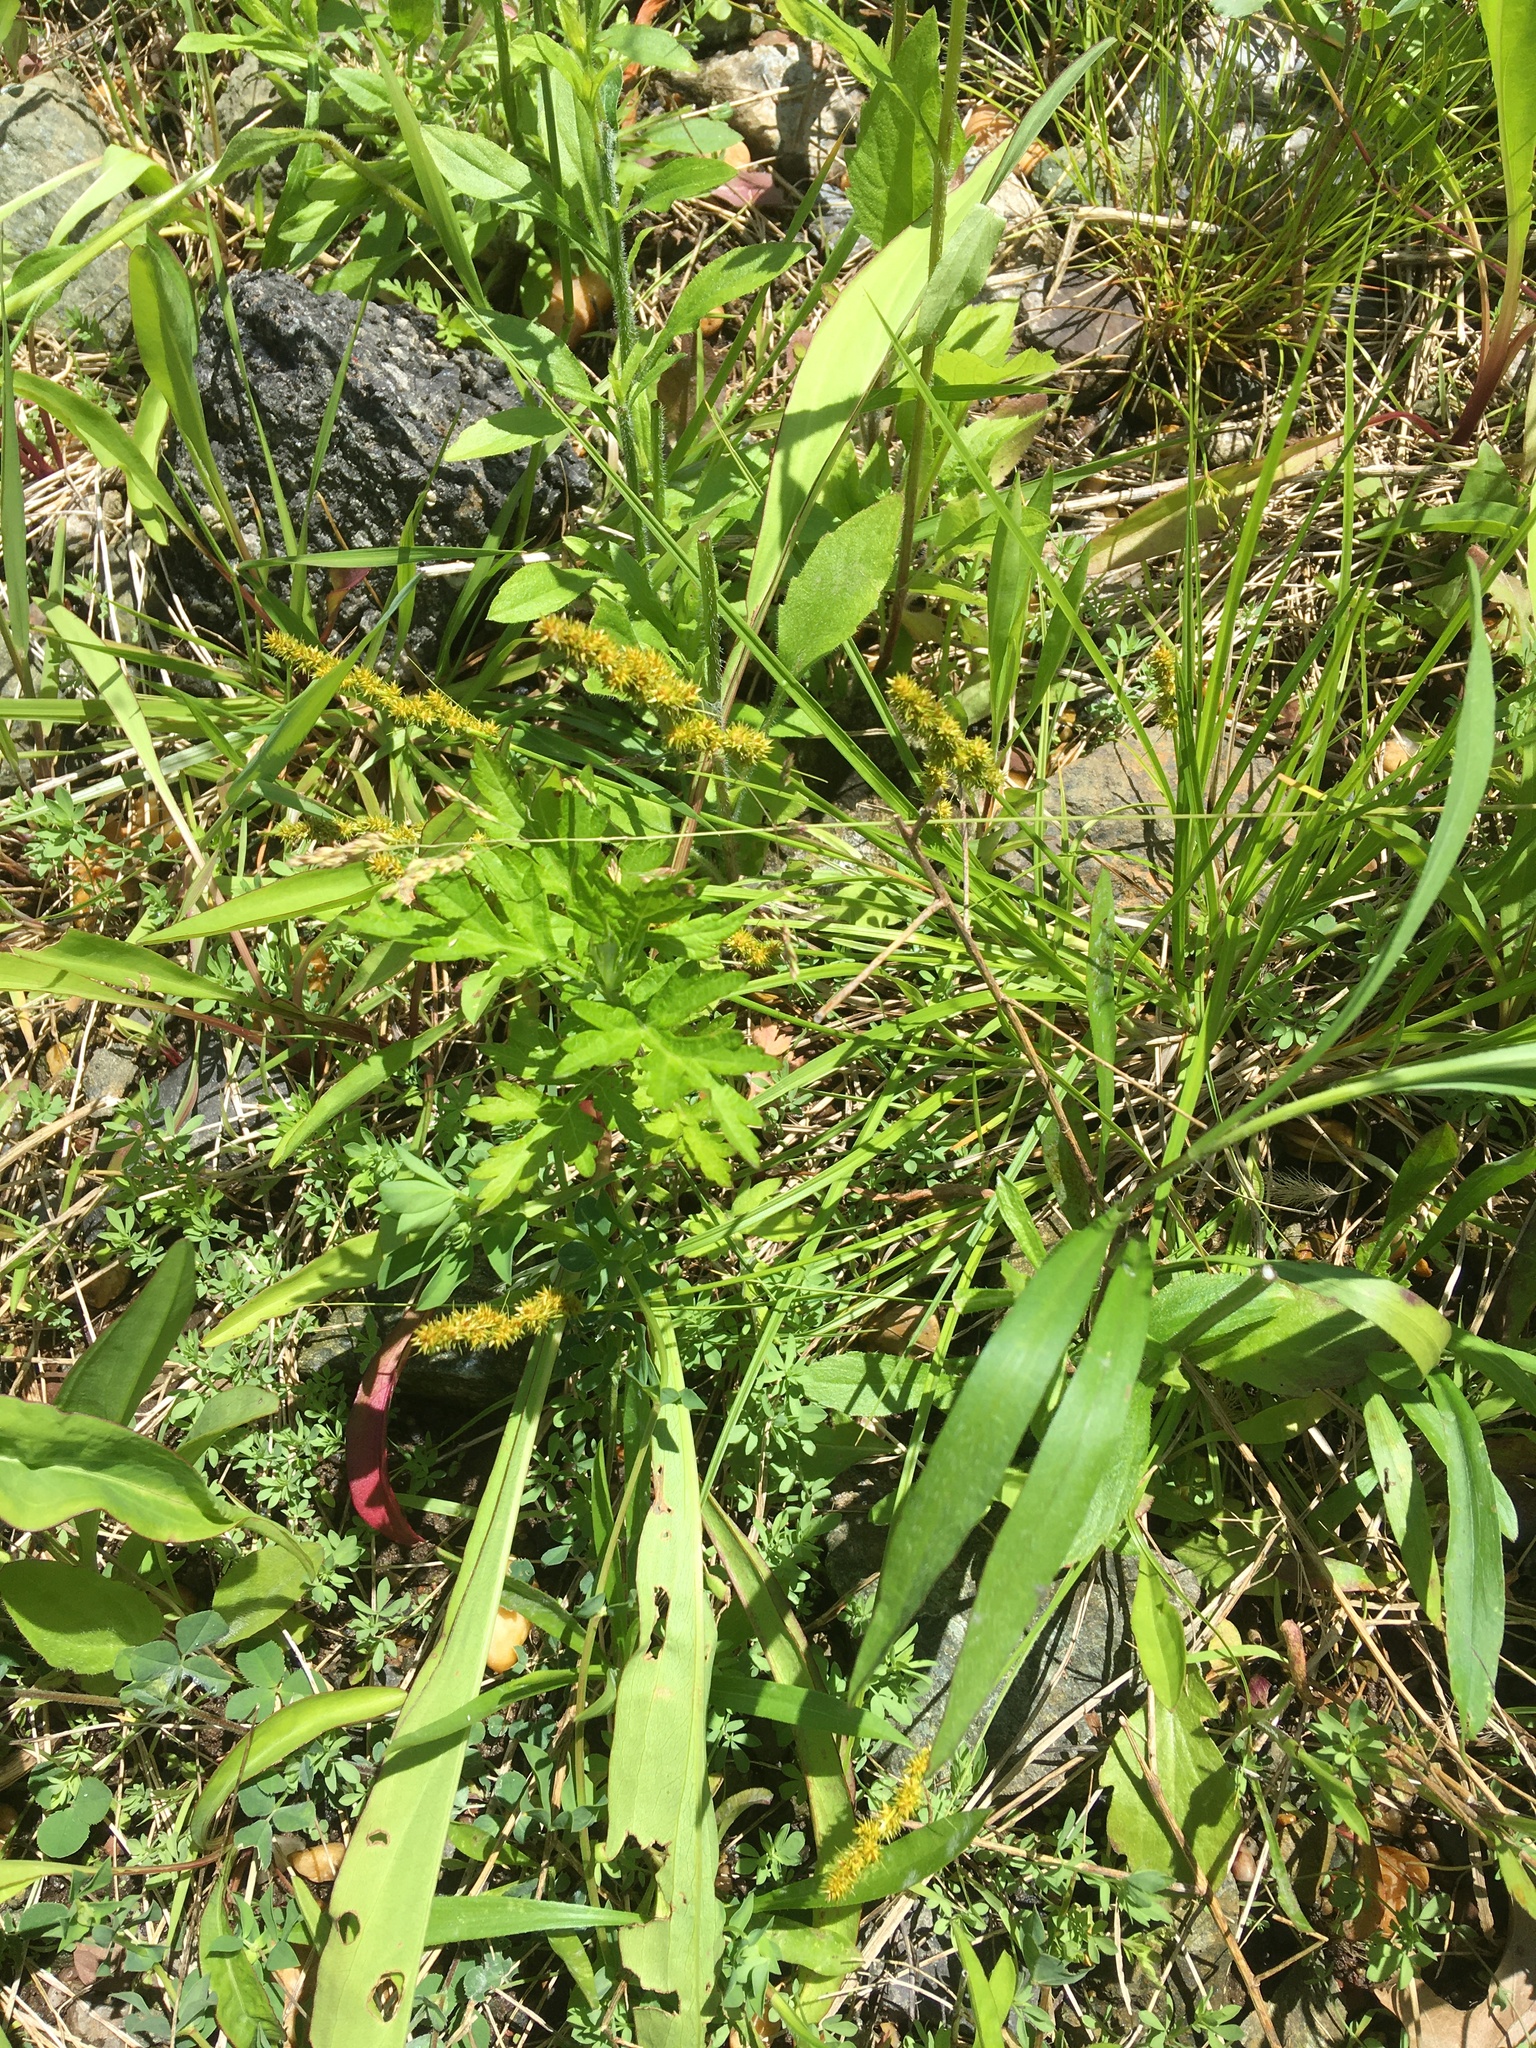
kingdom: Plantae
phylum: Tracheophyta
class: Liliopsida
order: Poales
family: Cyperaceae
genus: Carex
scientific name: Carex vulpinoidea
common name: American fox-sedge
